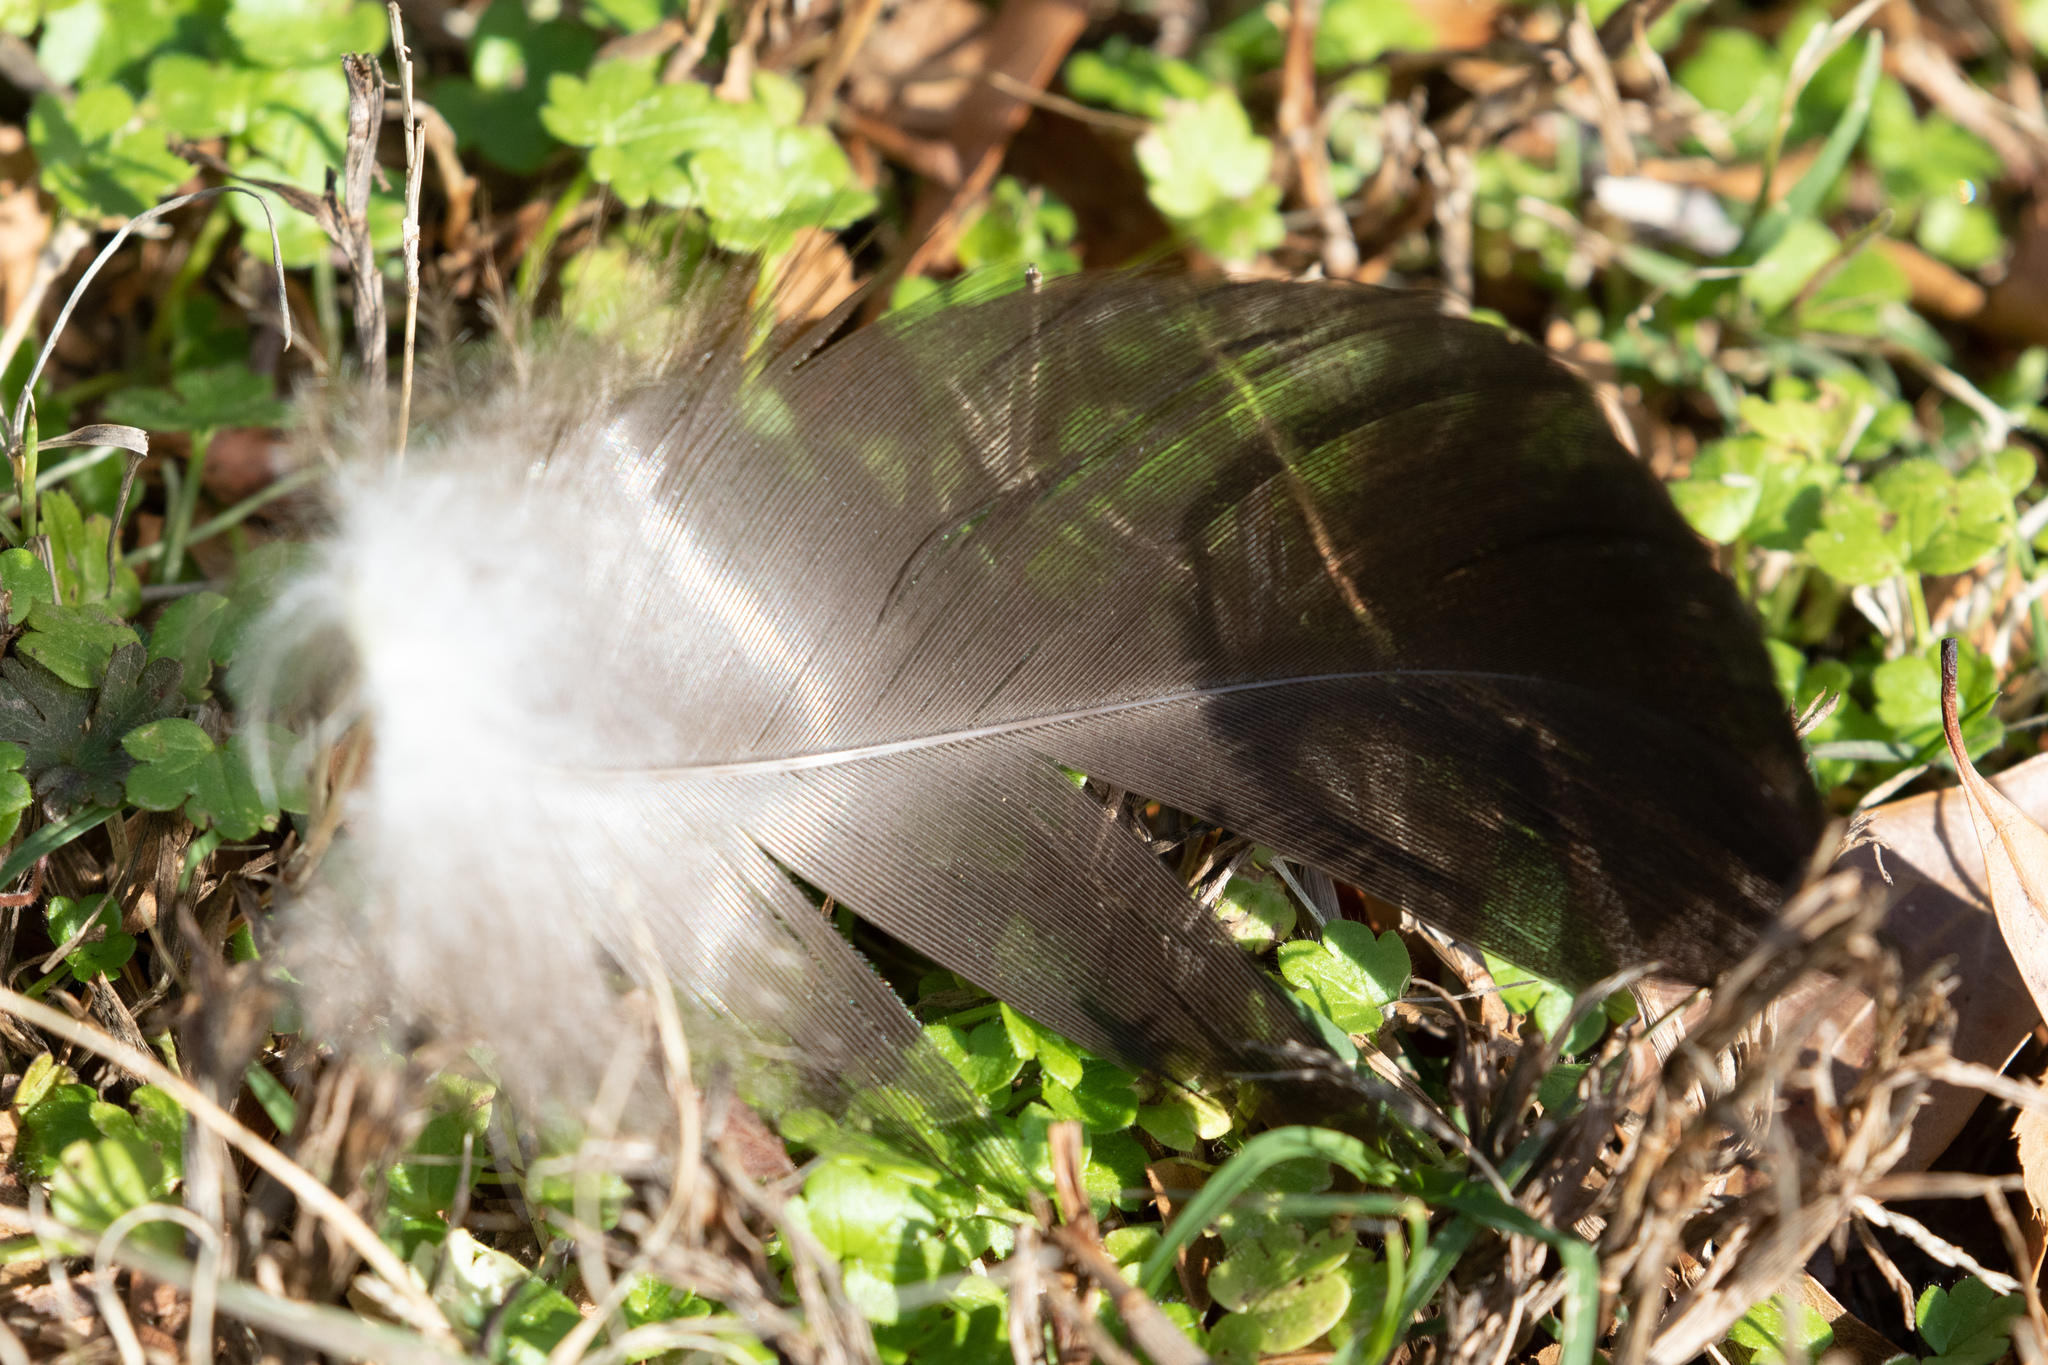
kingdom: Animalia
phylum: Chordata
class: Aves
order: Anseriformes
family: Anatidae
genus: Cairina
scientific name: Cairina moschata
